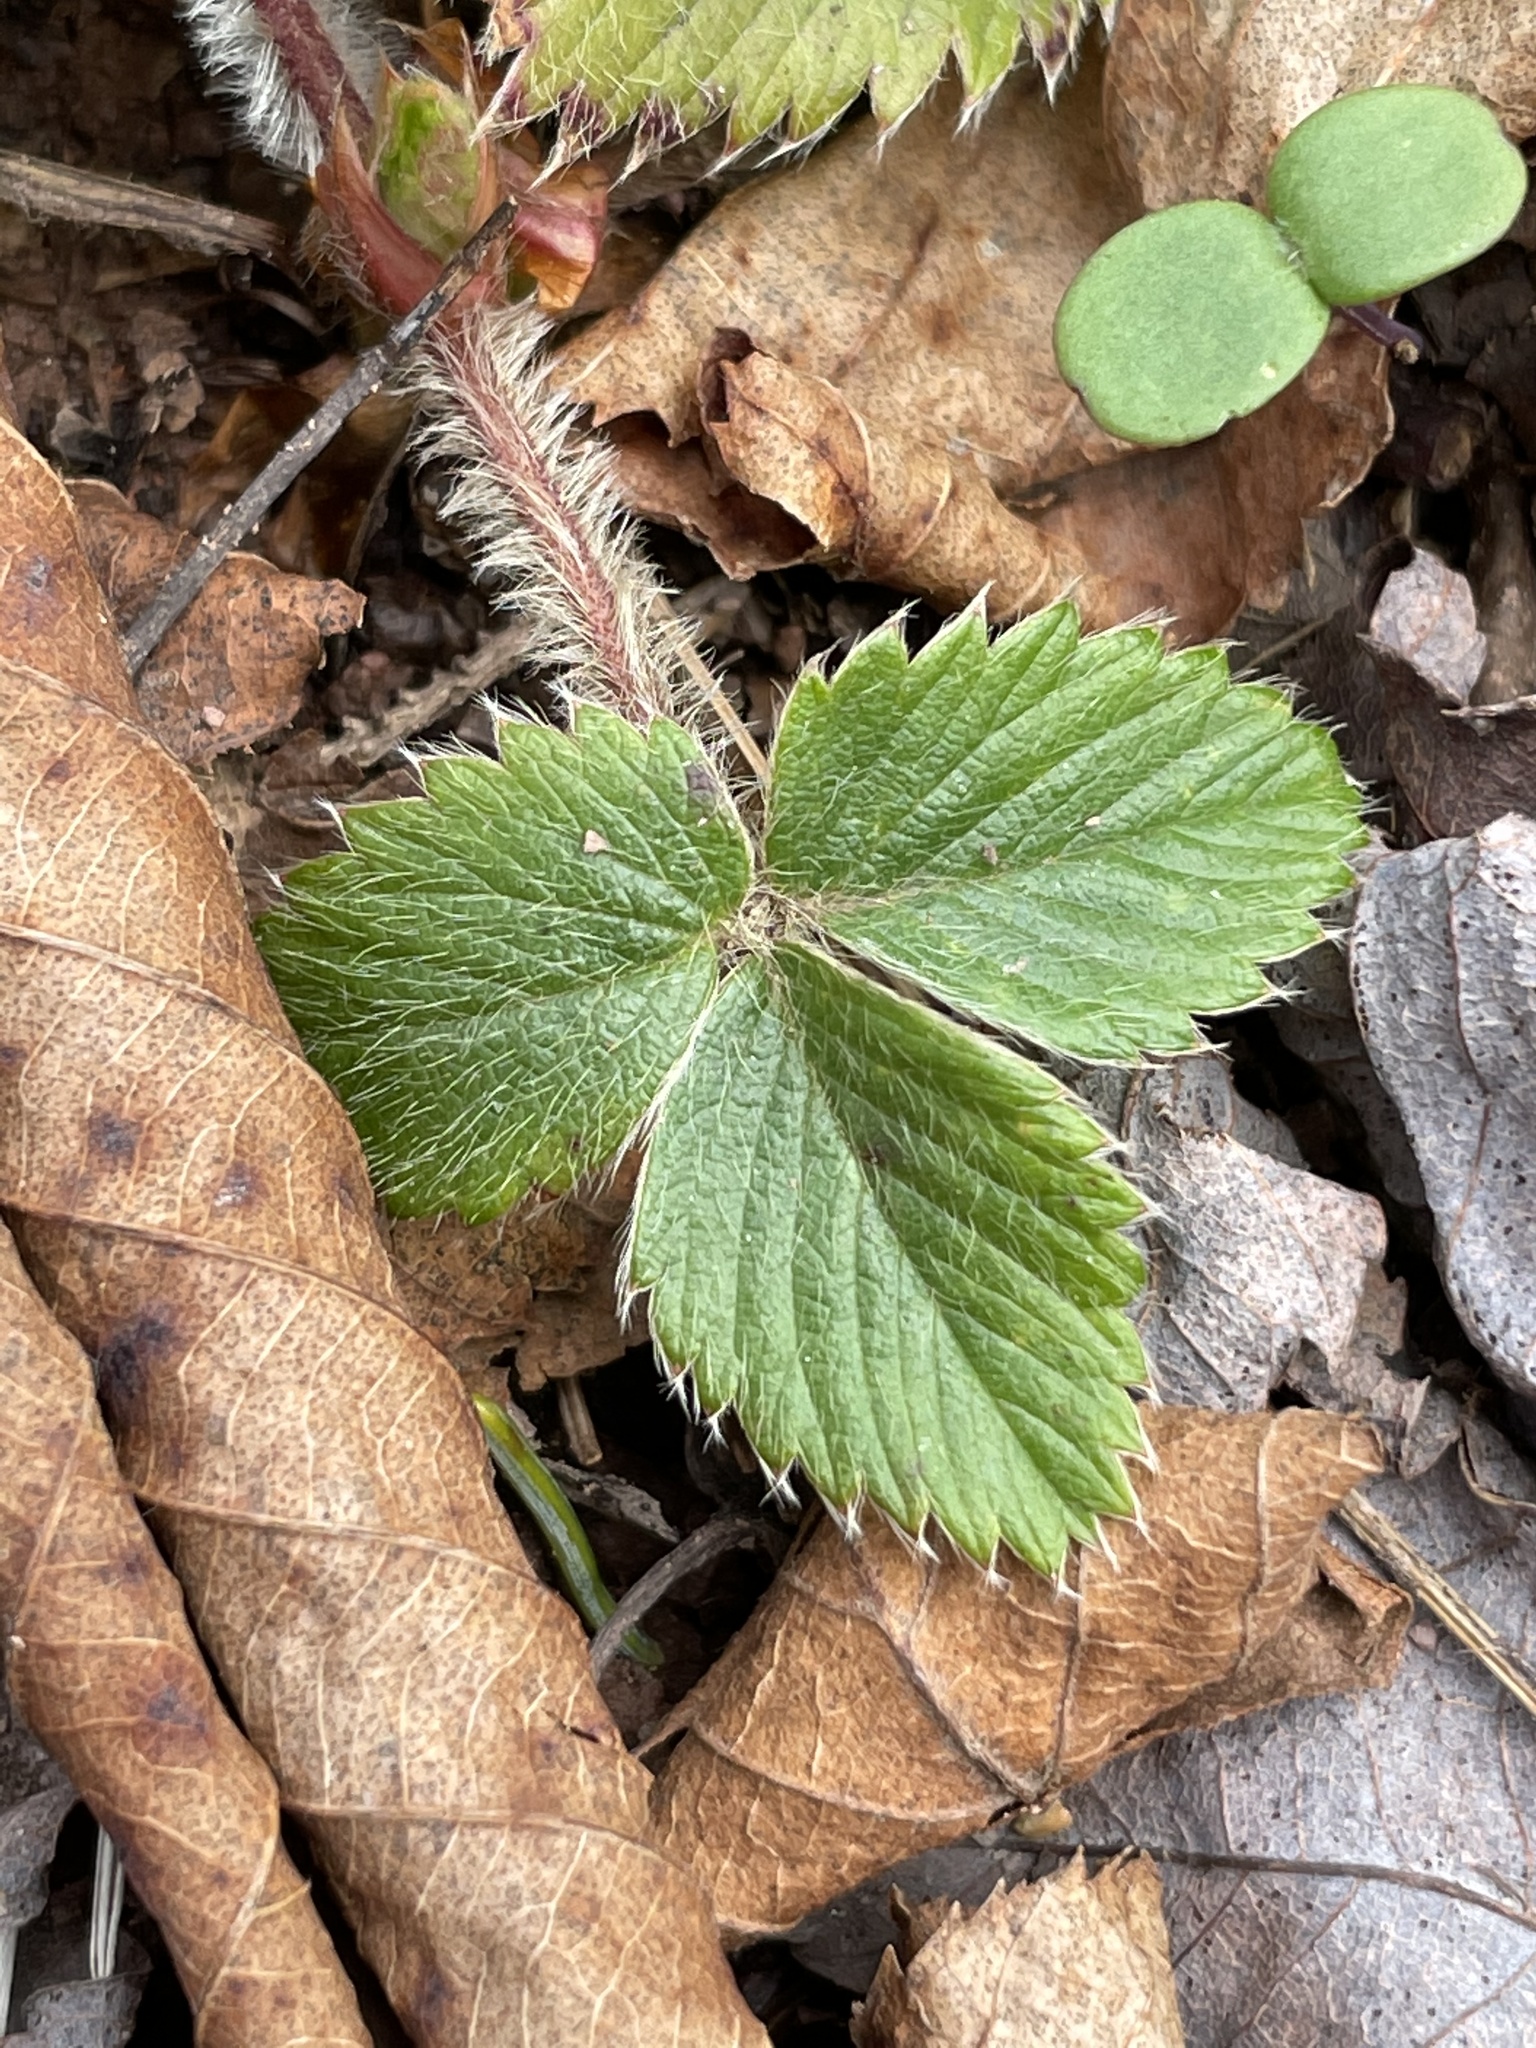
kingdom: Plantae
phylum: Tracheophyta
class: Magnoliopsida
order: Rosales
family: Rosaceae
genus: Fragaria
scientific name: Fragaria virginiana
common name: Thickleaved wild strawberry
